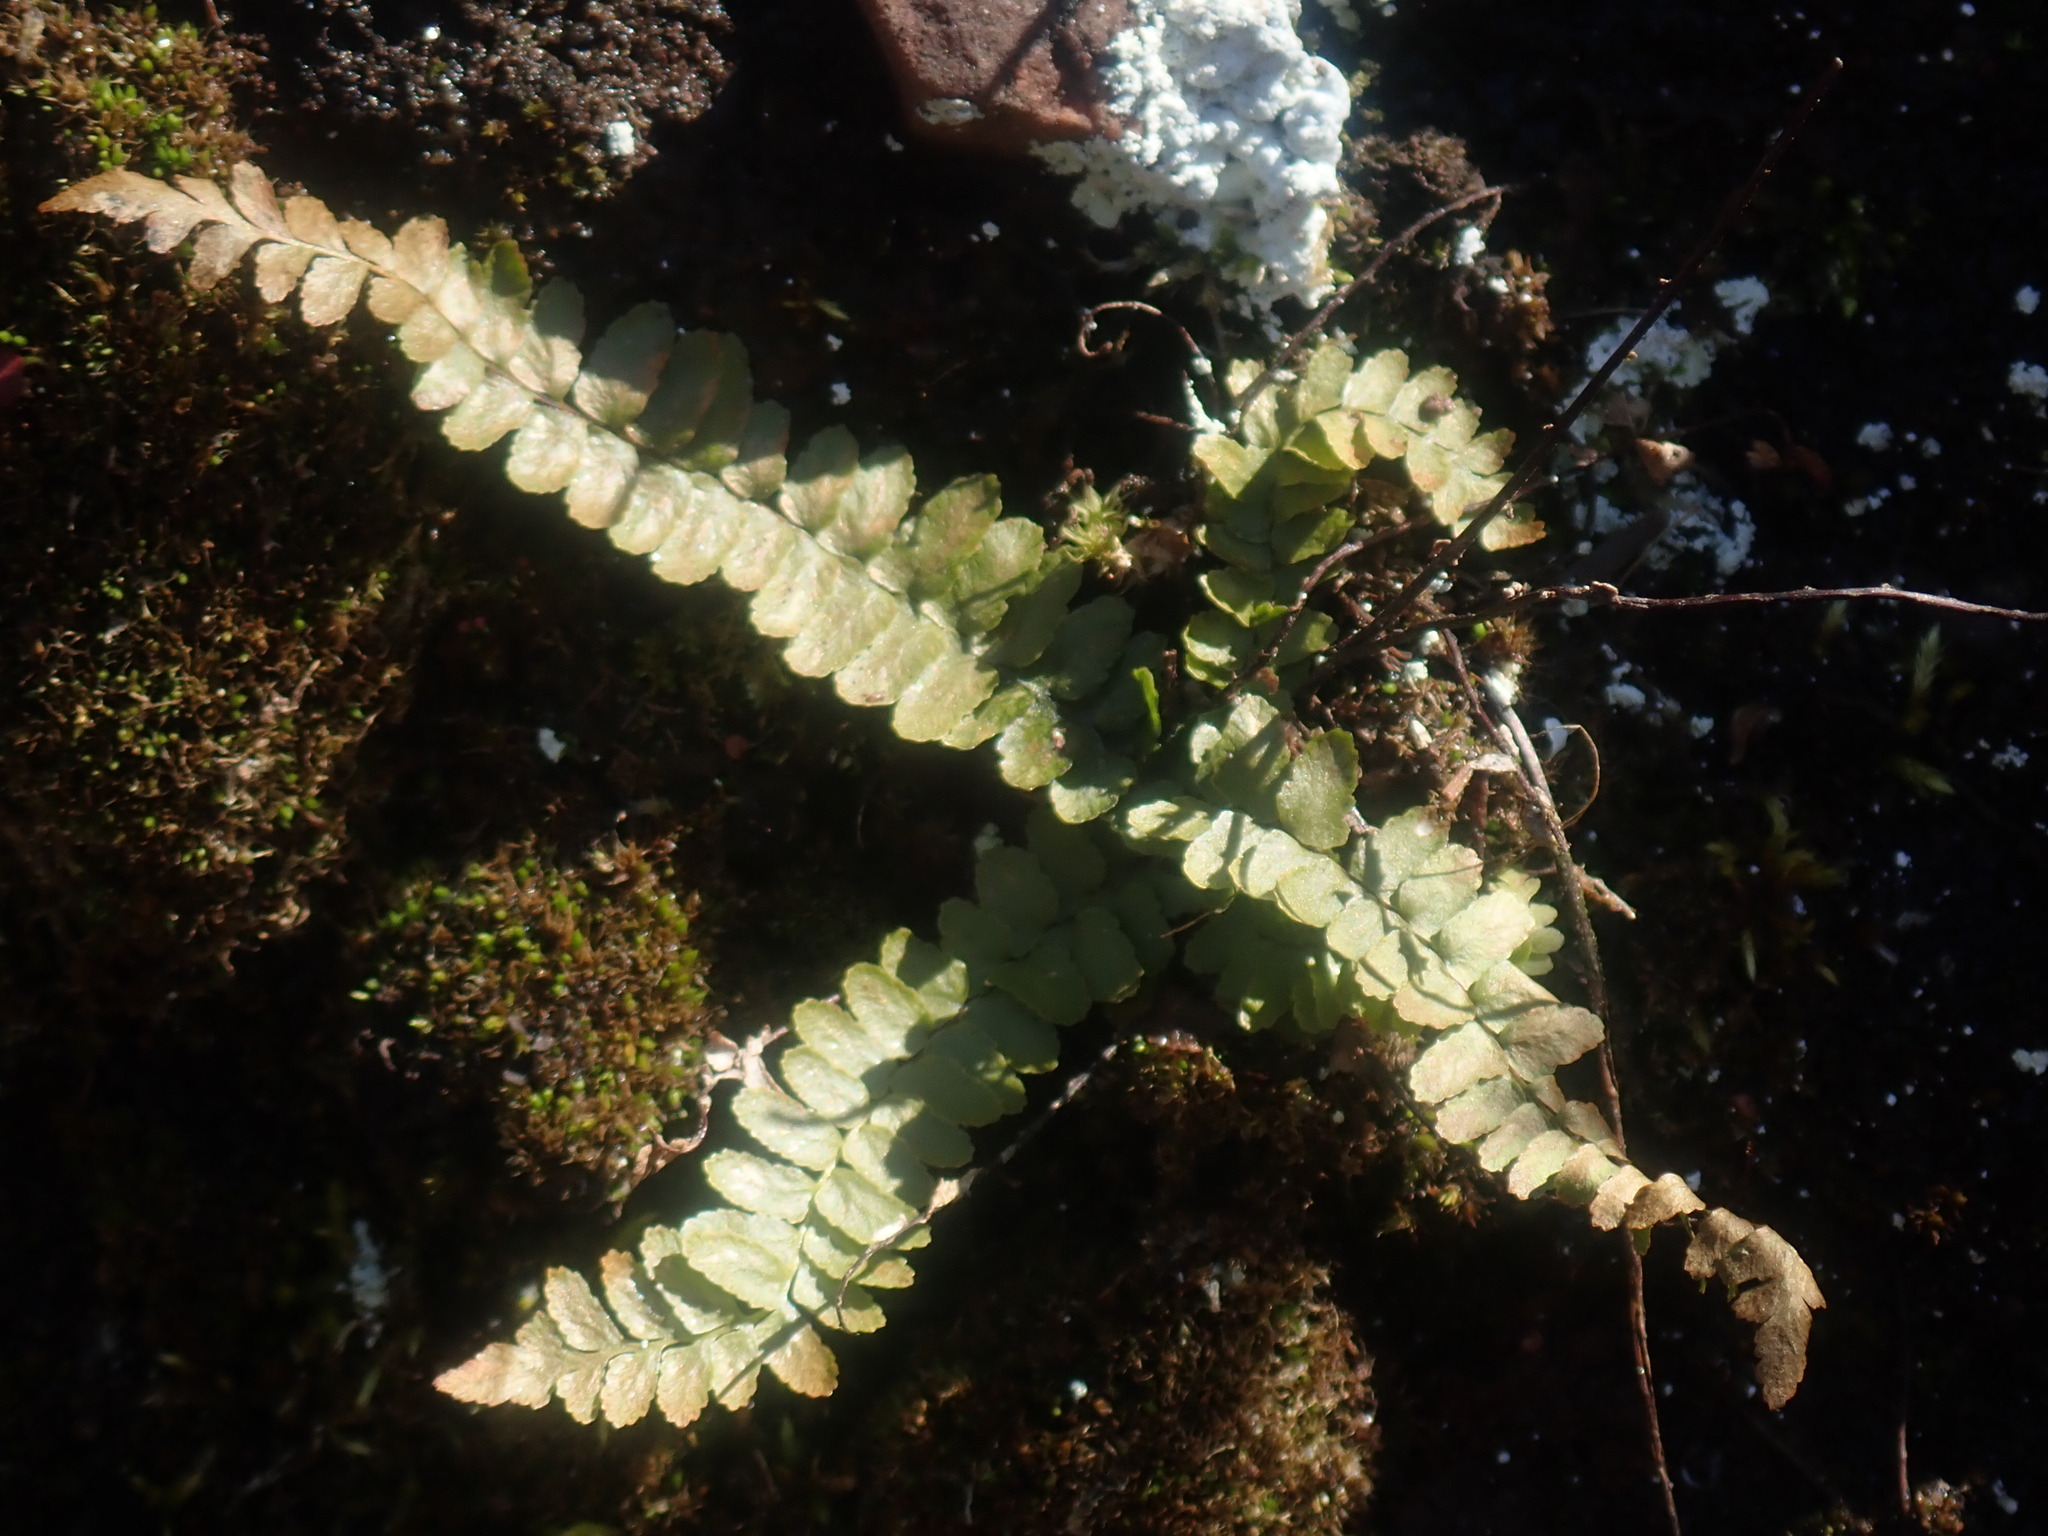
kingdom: Plantae
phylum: Tracheophyta
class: Polypodiopsida
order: Polypodiales
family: Aspleniaceae
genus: Asplenium
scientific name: Asplenium platyneuron
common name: Ebony spleenwort
